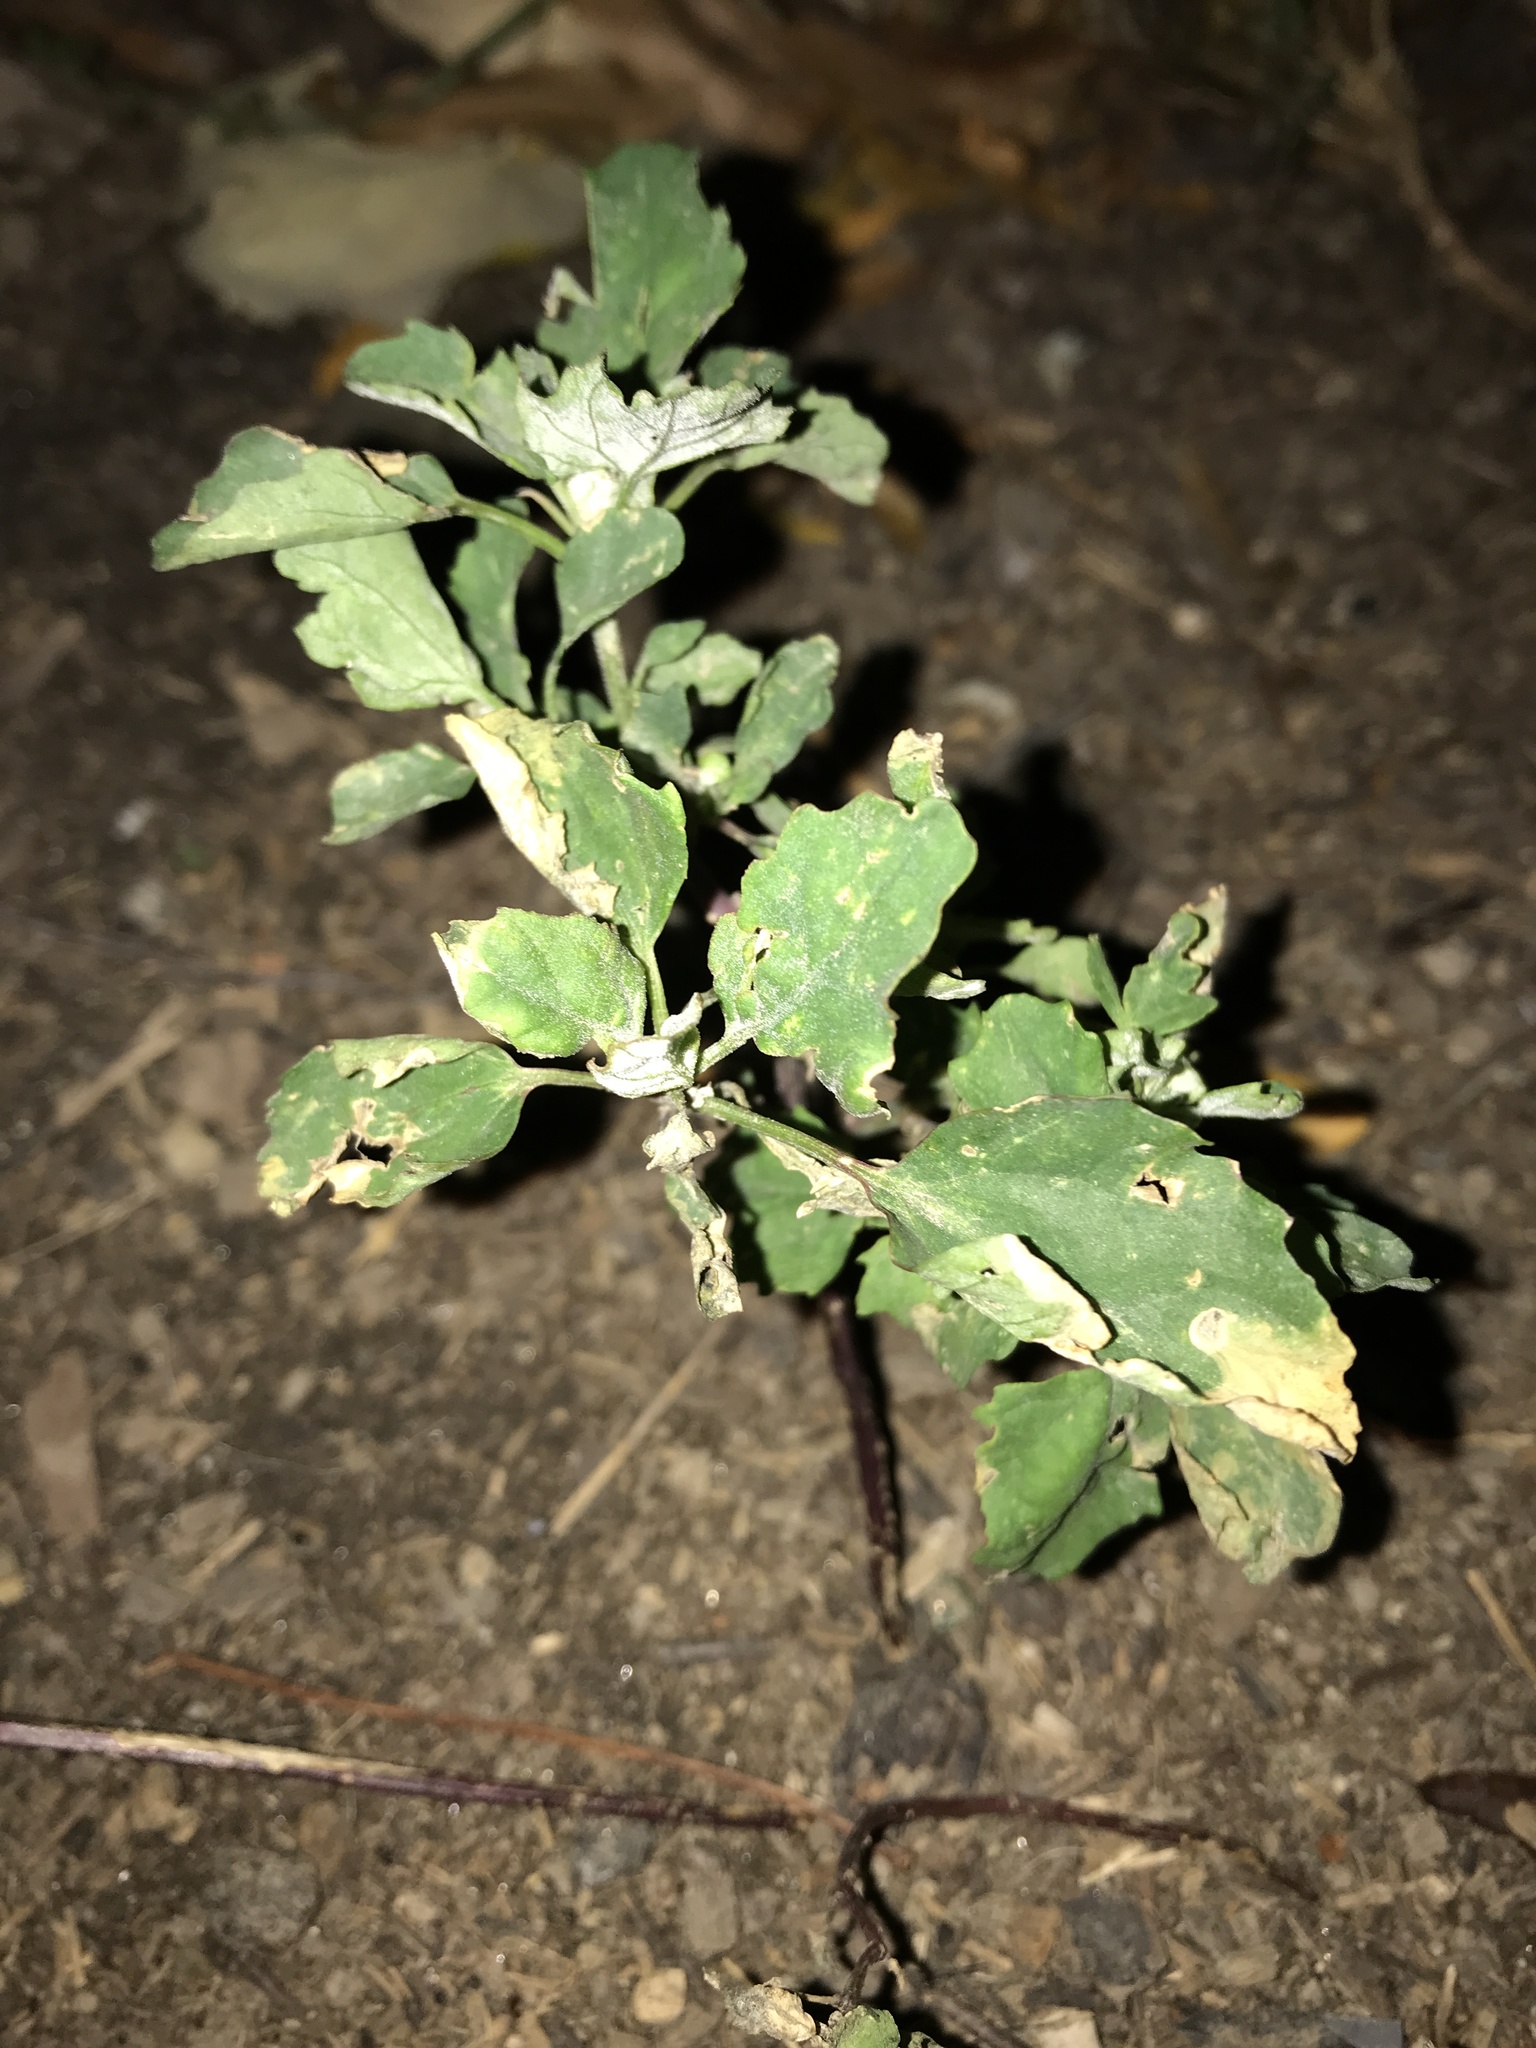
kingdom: Plantae
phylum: Tracheophyta
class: Magnoliopsida
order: Caryophyllales
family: Amaranthaceae
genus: Chenopodium
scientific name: Chenopodium album
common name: Fat-hen
